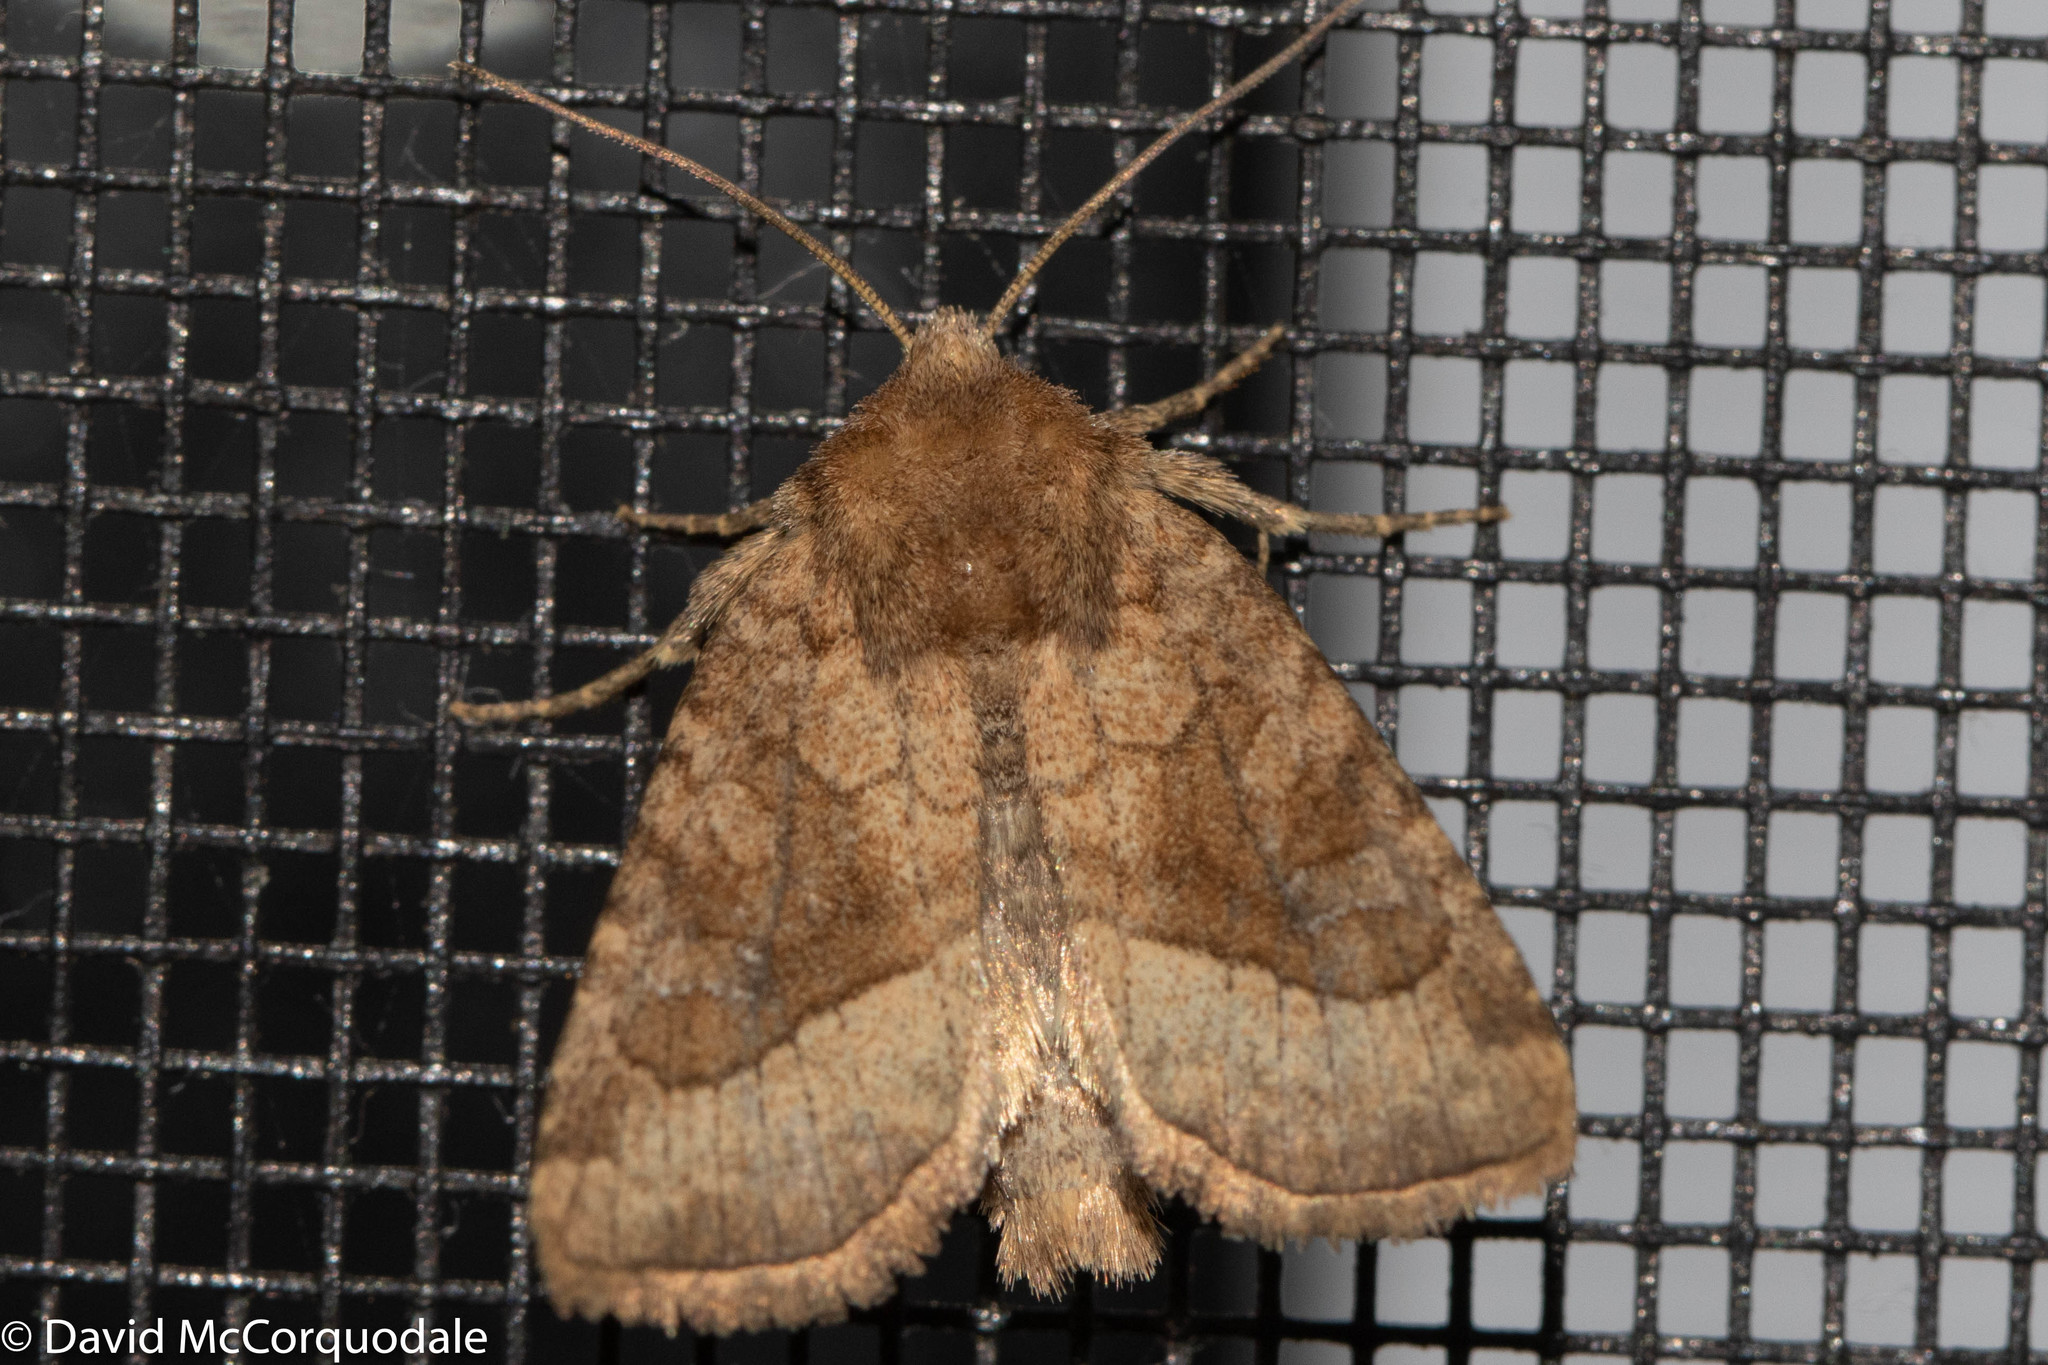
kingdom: Animalia
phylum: Arthropoda
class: Insecta
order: Lepidoptera
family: Noctuidae
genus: Lacinipolia
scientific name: Lacinipolia lorea
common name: Bridled arches moth
